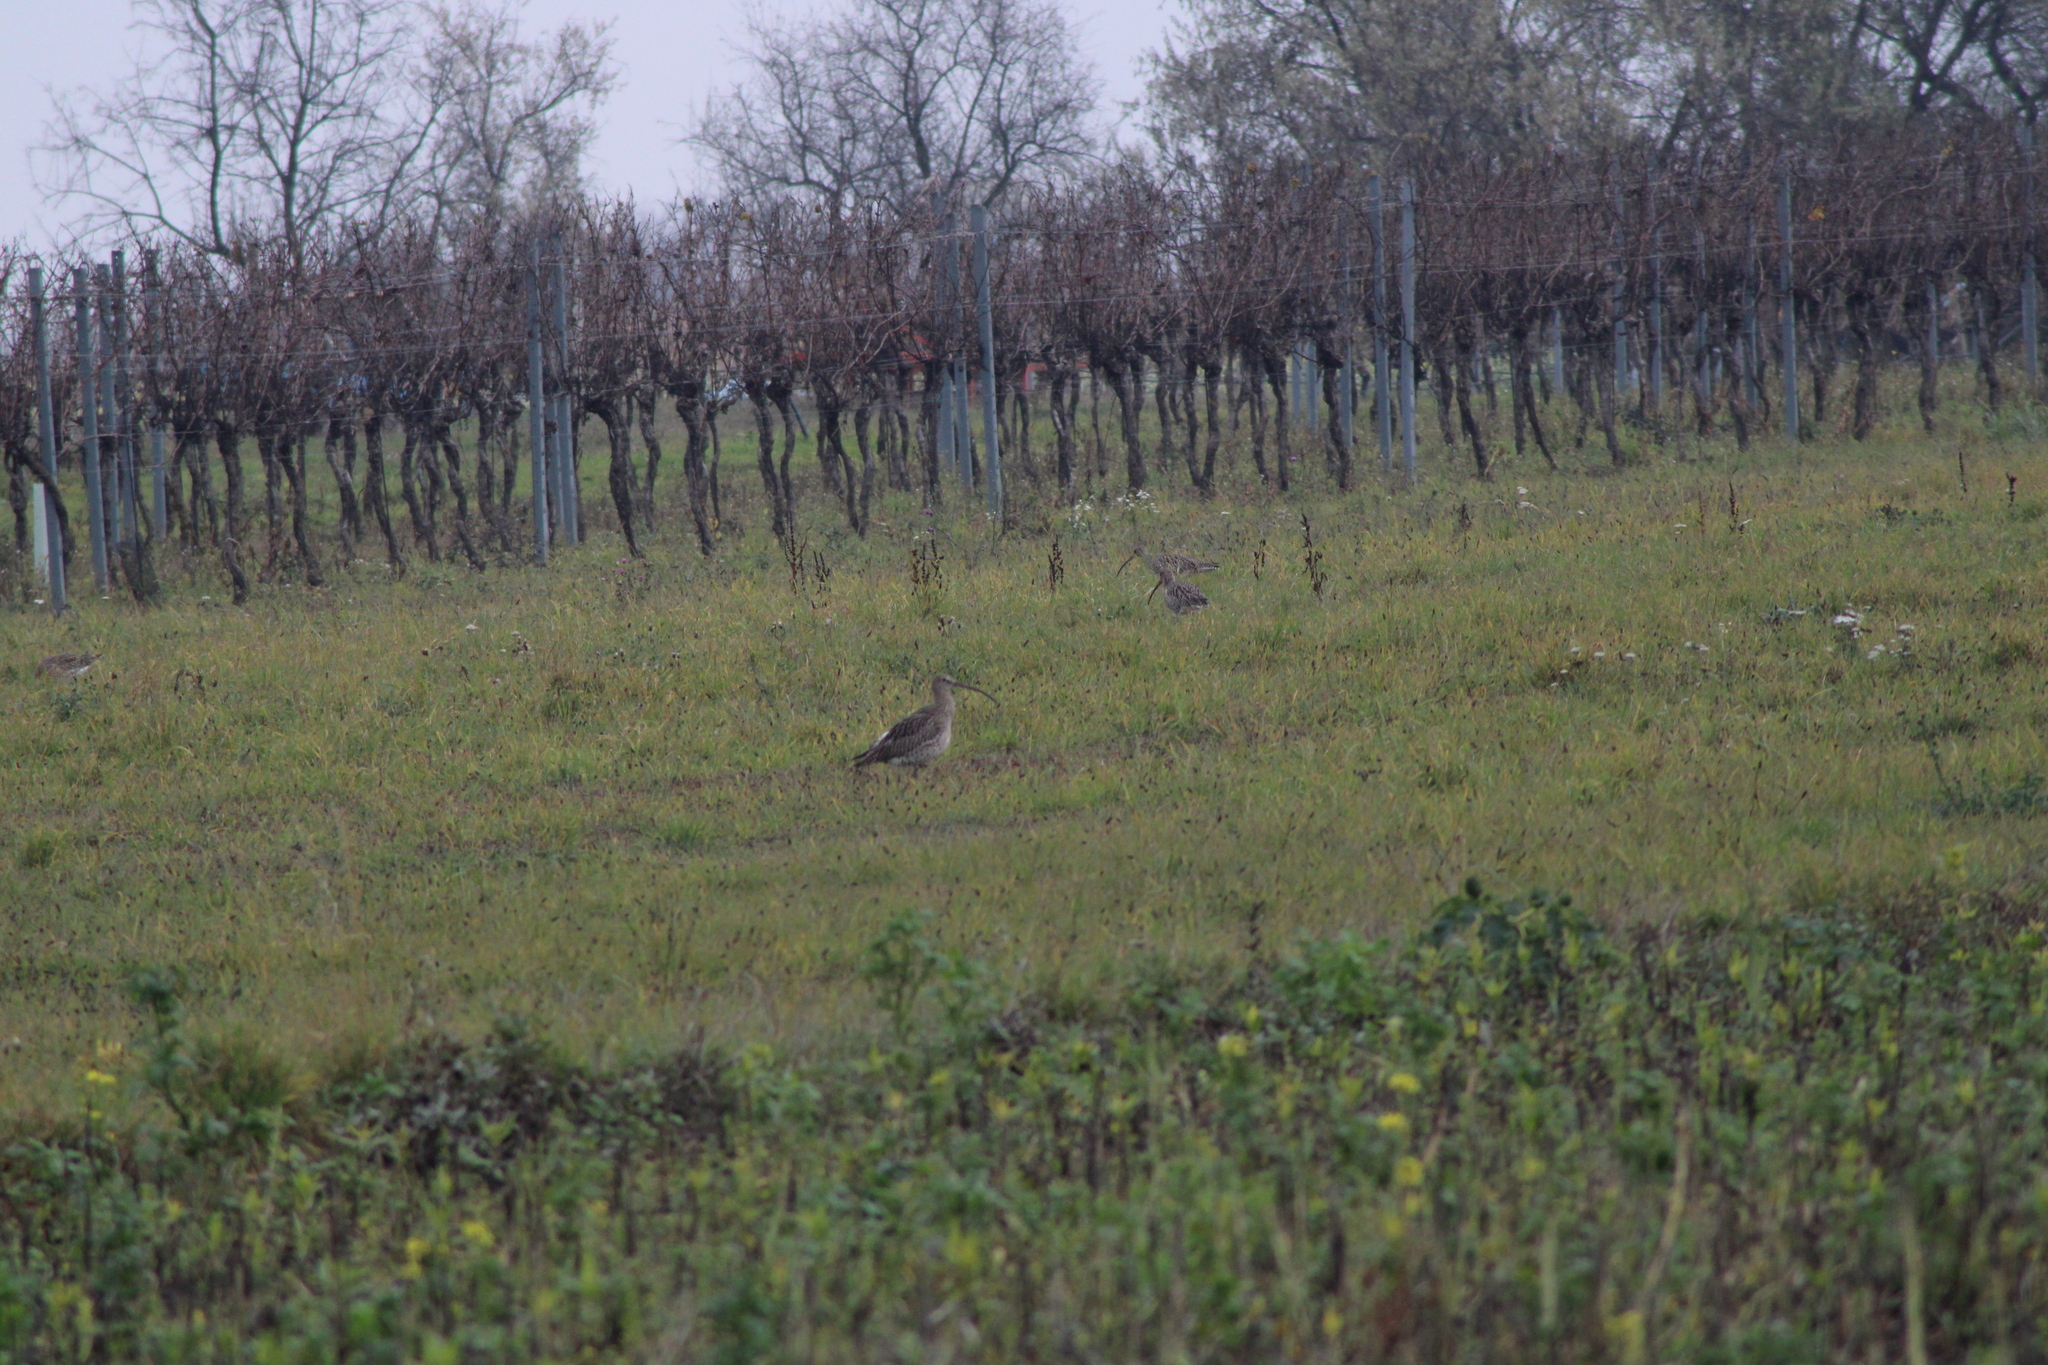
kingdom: Animalia
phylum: Chordata
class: Aves
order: Charadriiformes
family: Scolopacidae
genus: Numenius
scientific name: Numenius arquata
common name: Eurasian curlew
